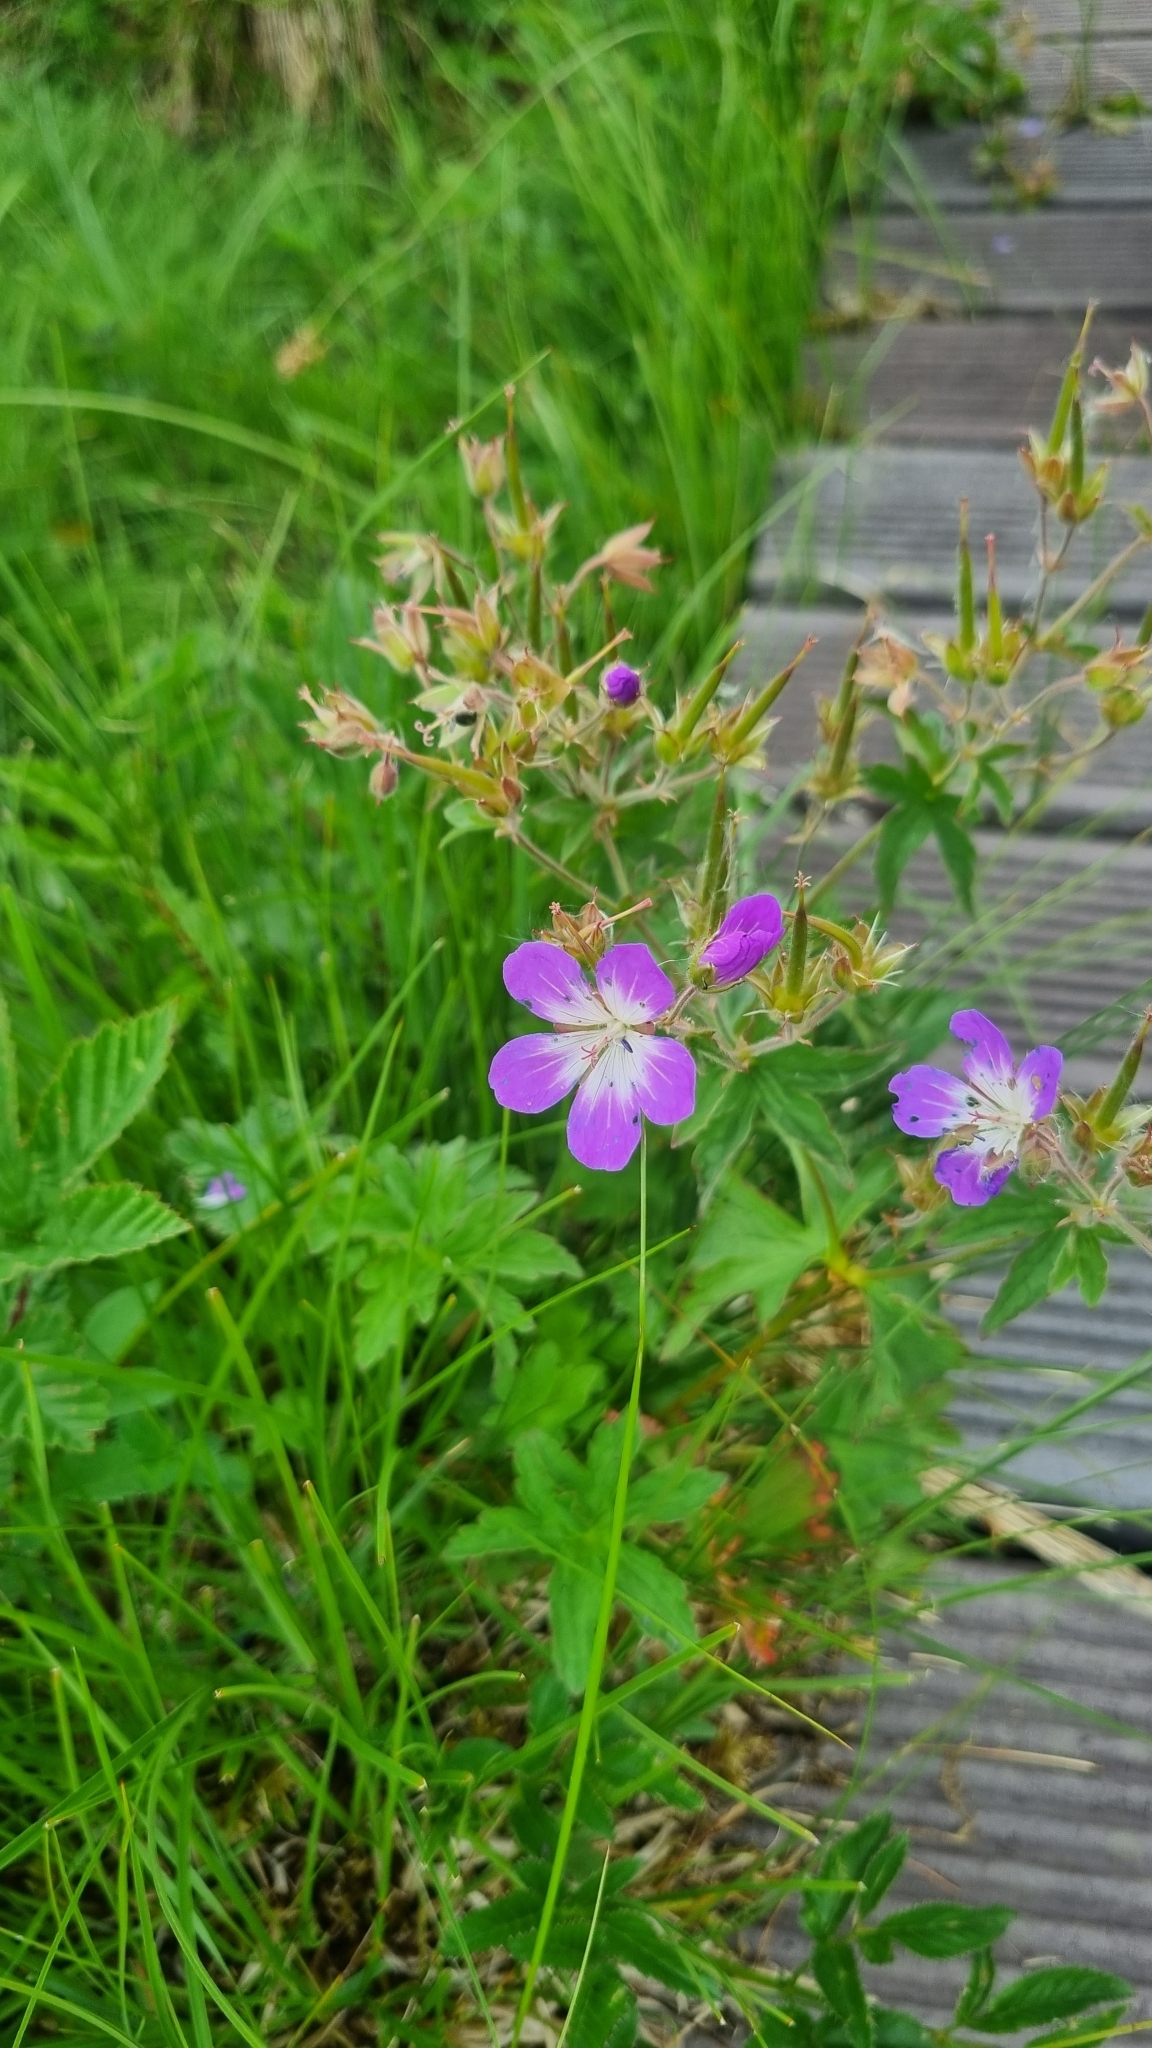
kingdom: Plantae
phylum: Tracheophyta
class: Magnoliopsida
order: Geraniales
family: Geraniaceae
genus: Geranium
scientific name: Geranium sylvaticum
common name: Wood crane's-bill
